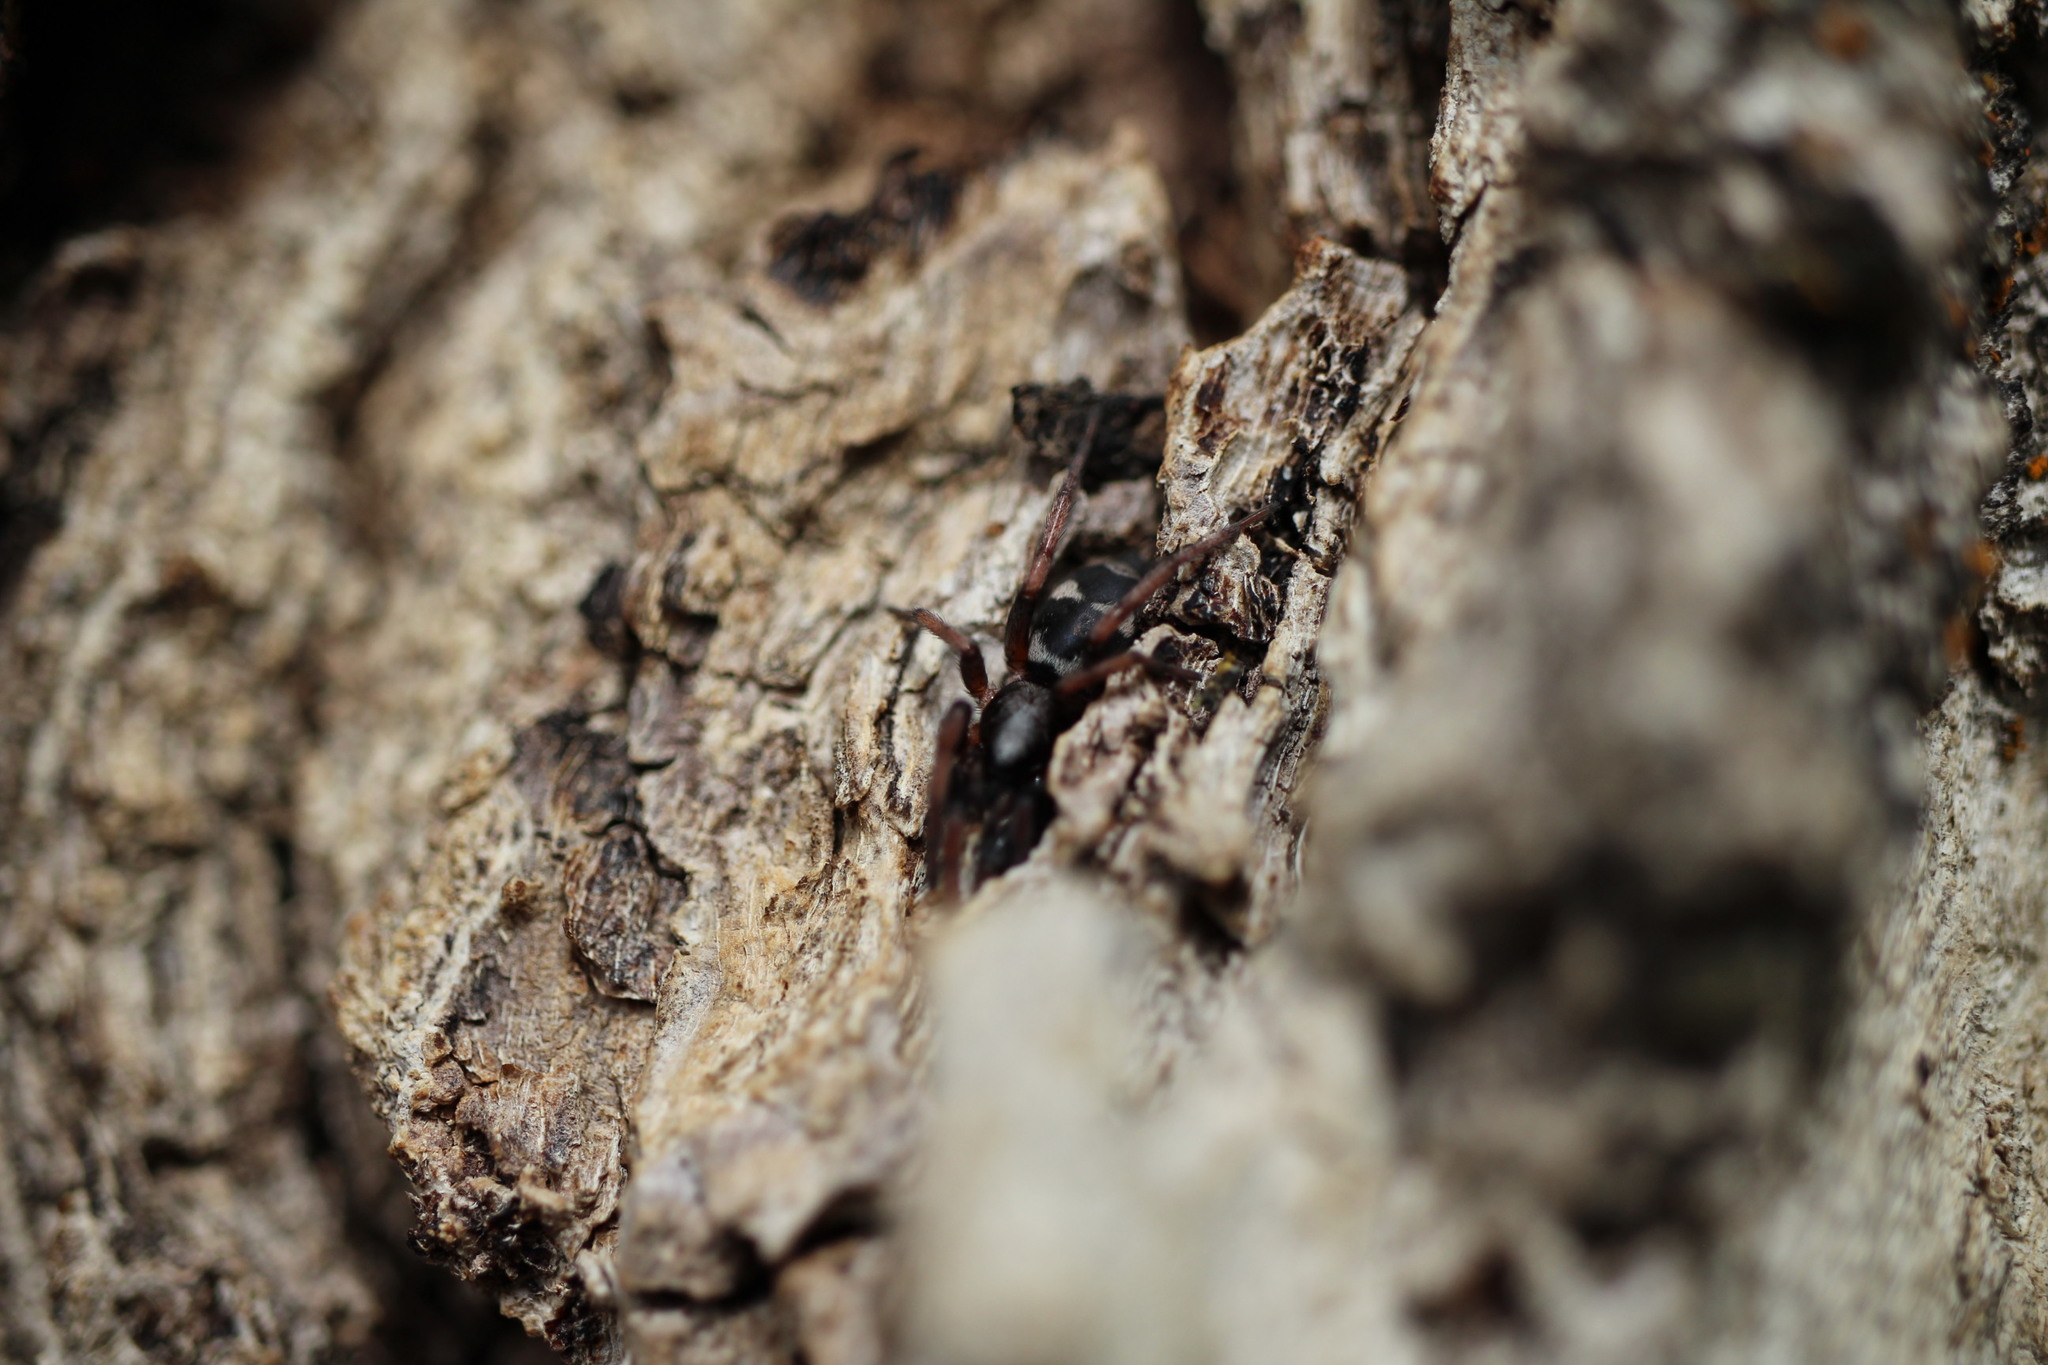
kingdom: Animalia
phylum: Arthropoda
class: Arachnida
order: Araneae
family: Gnaphosidae
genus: Sergiolus
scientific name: Sergiolus montanus
